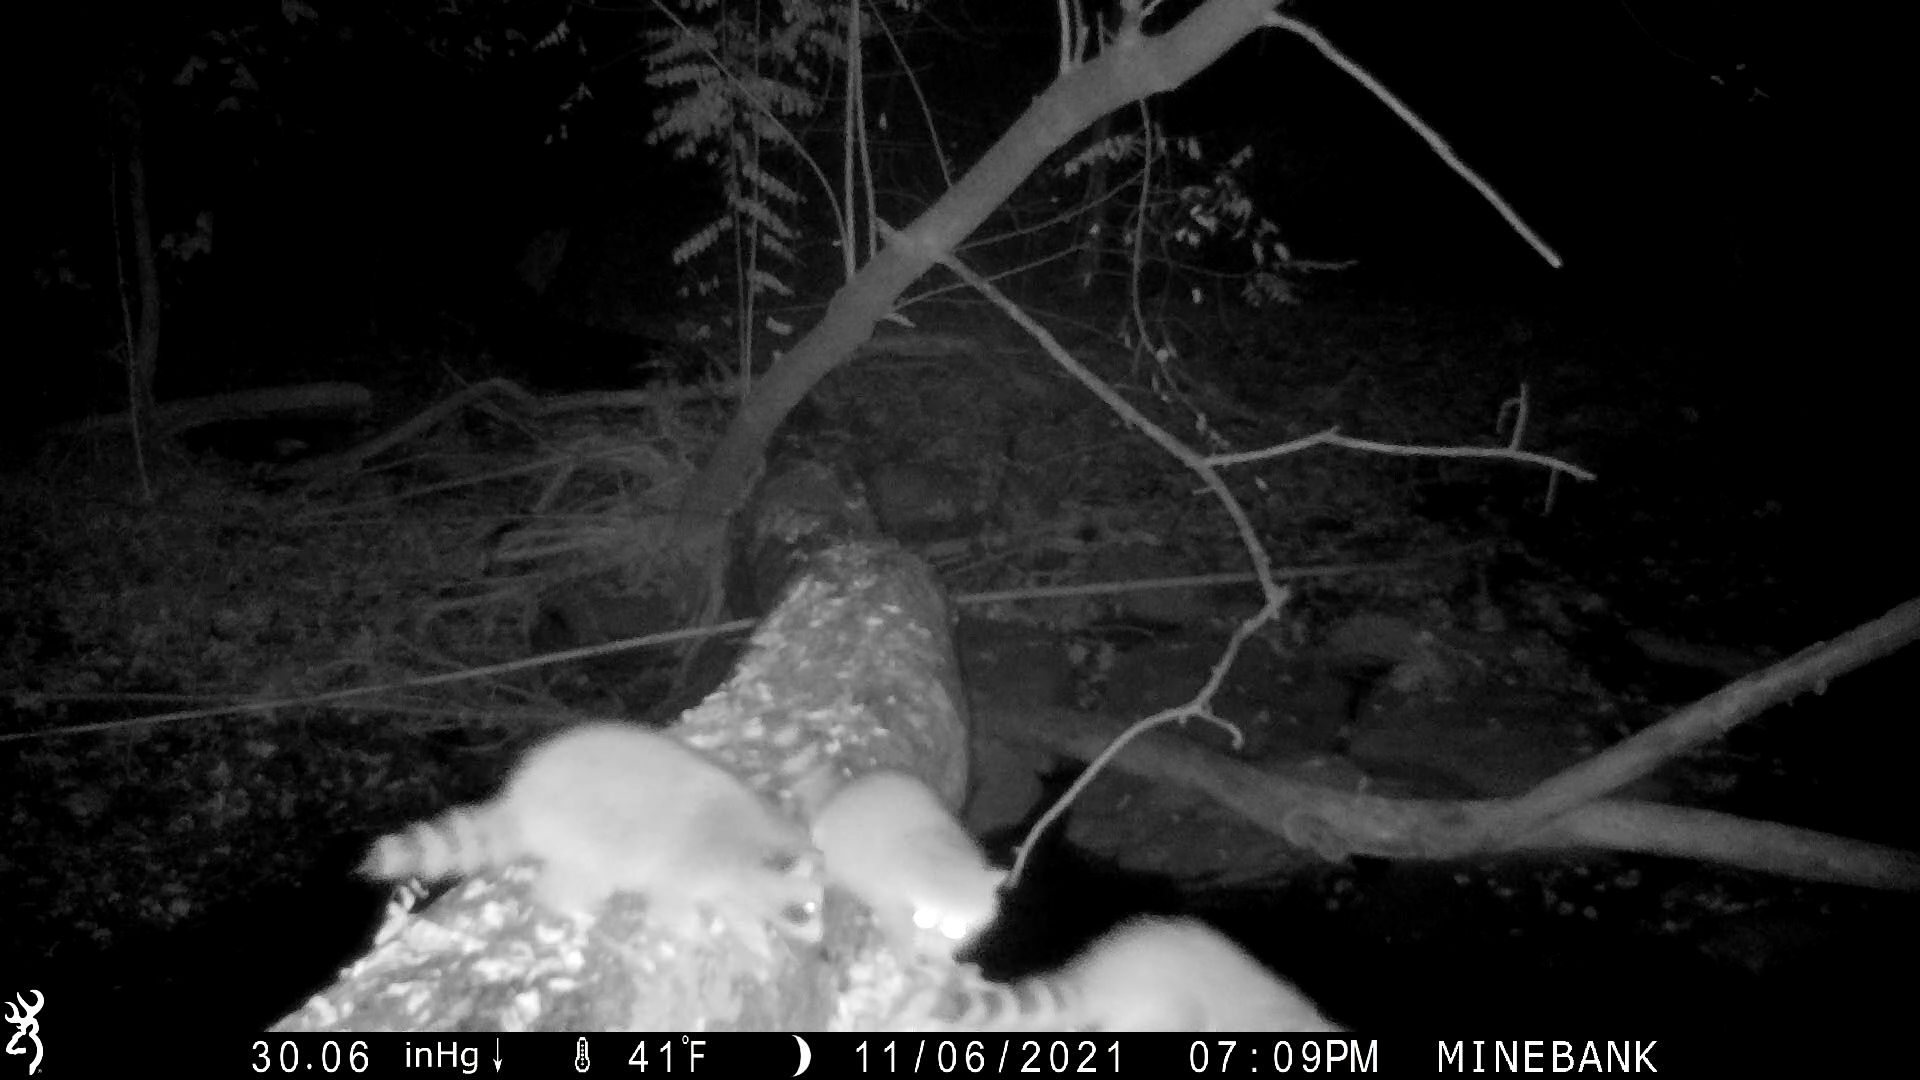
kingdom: Animalia
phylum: Chordata
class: Mammalia
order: Carnivora
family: Procyonidae
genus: Procyon
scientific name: Procyon lotor
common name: Raccoon
